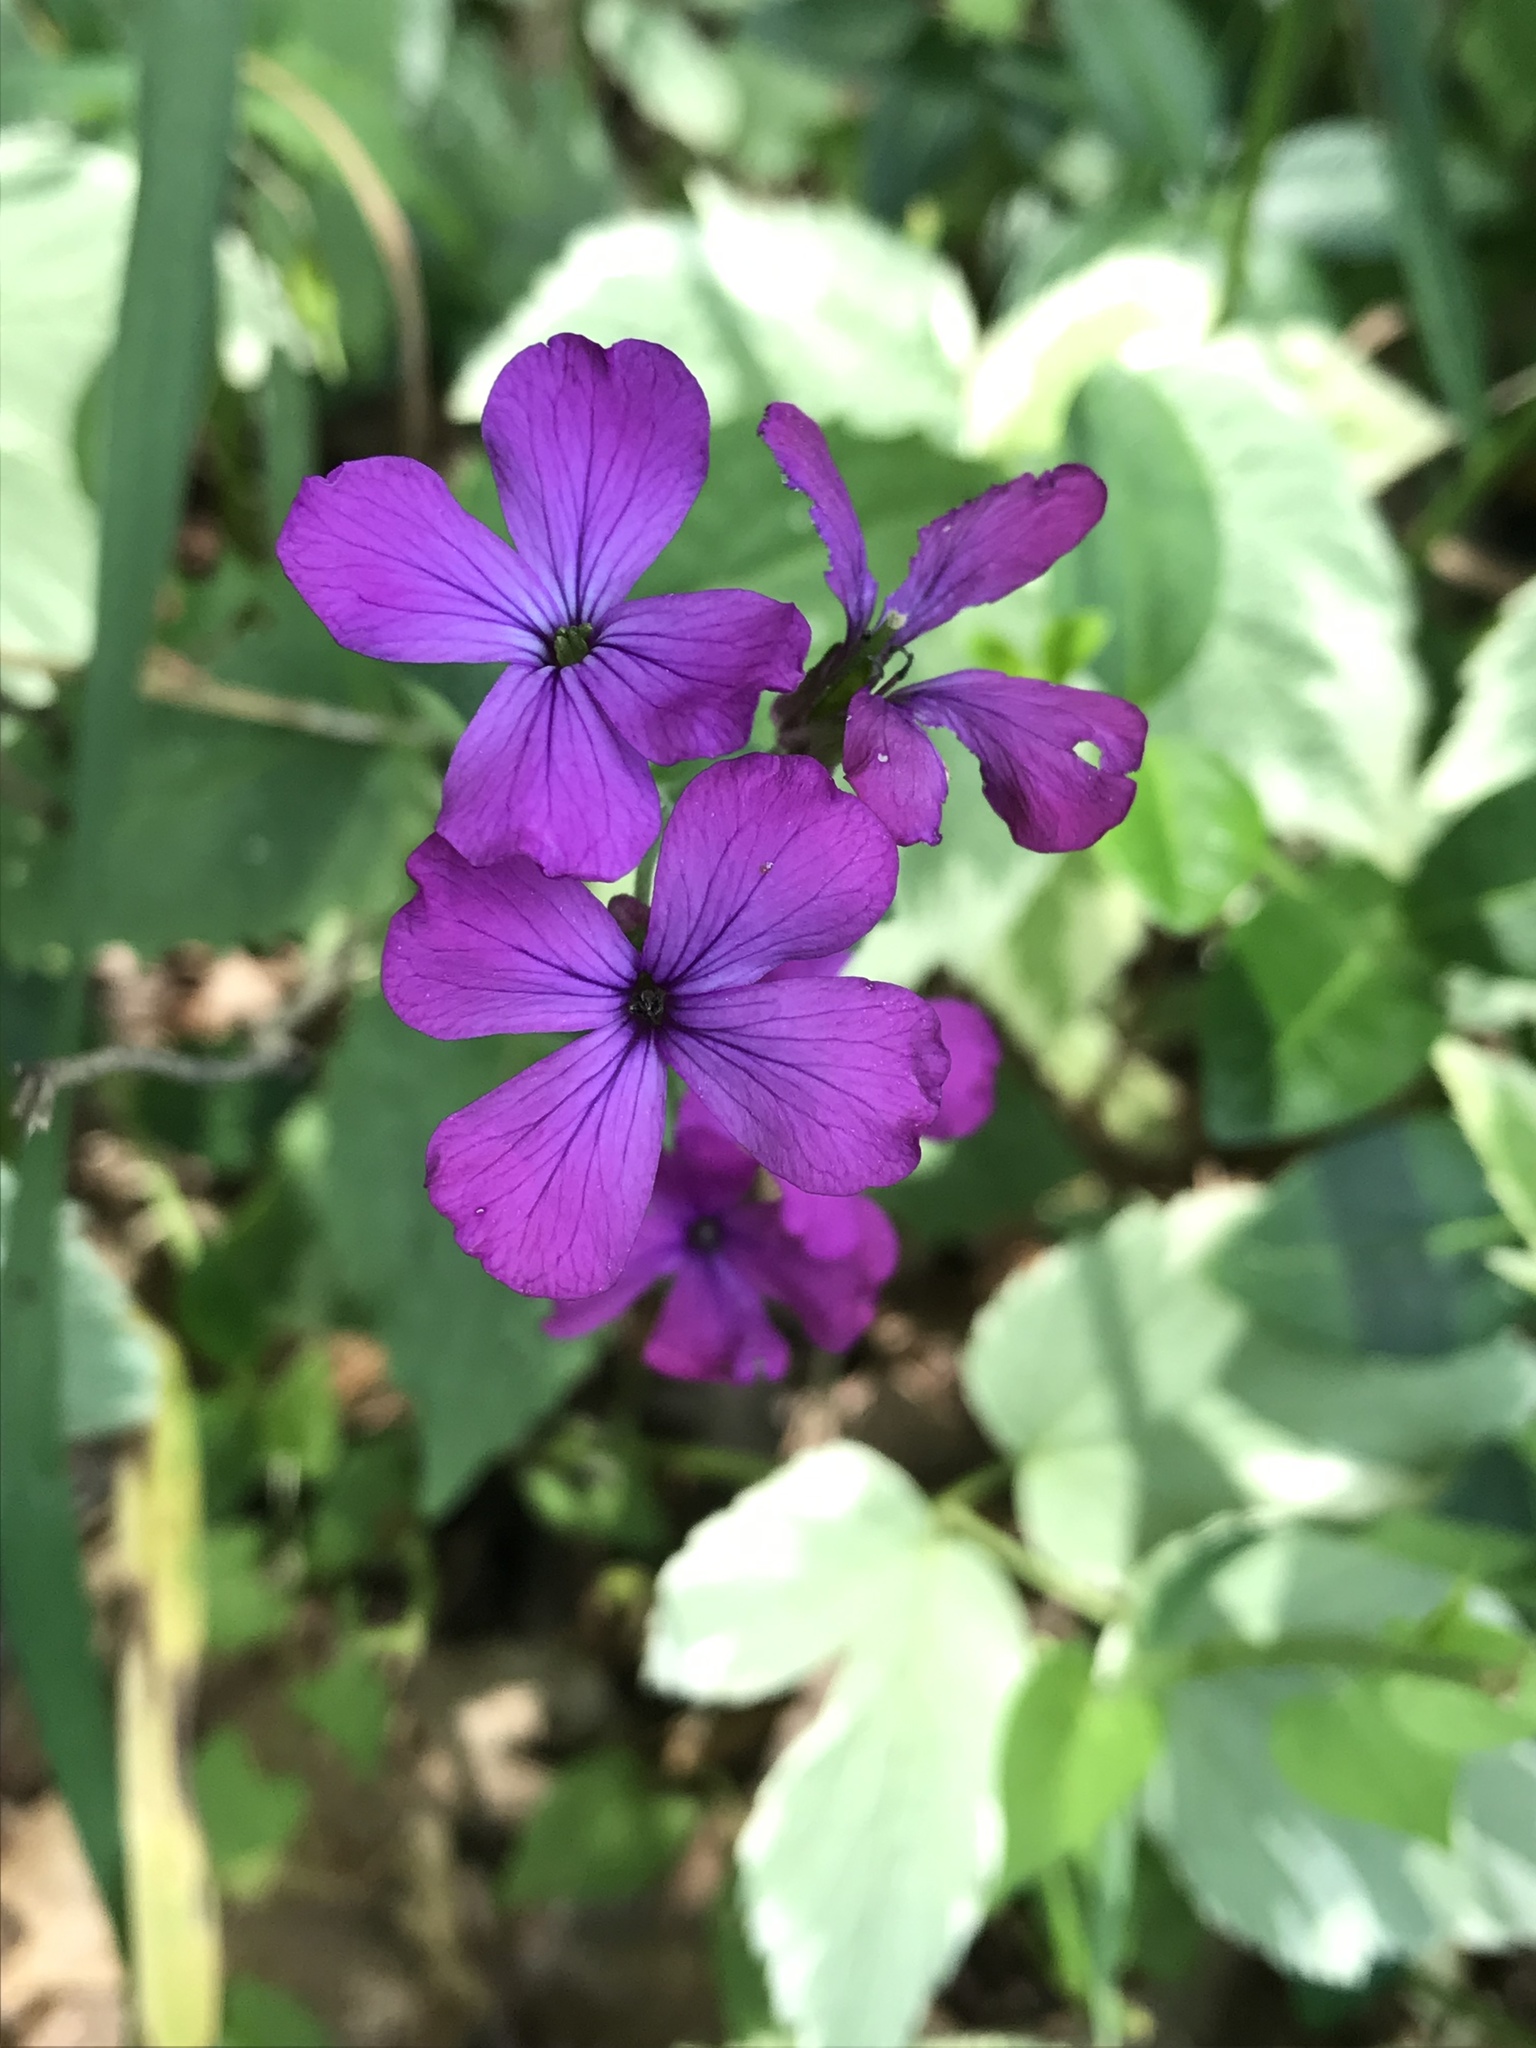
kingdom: Plantae
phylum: Tracheophyta
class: Magnoliopsida
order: Brassicales
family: Brassicaceae
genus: Lunaria
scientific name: Lunaria annua
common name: Honesty
